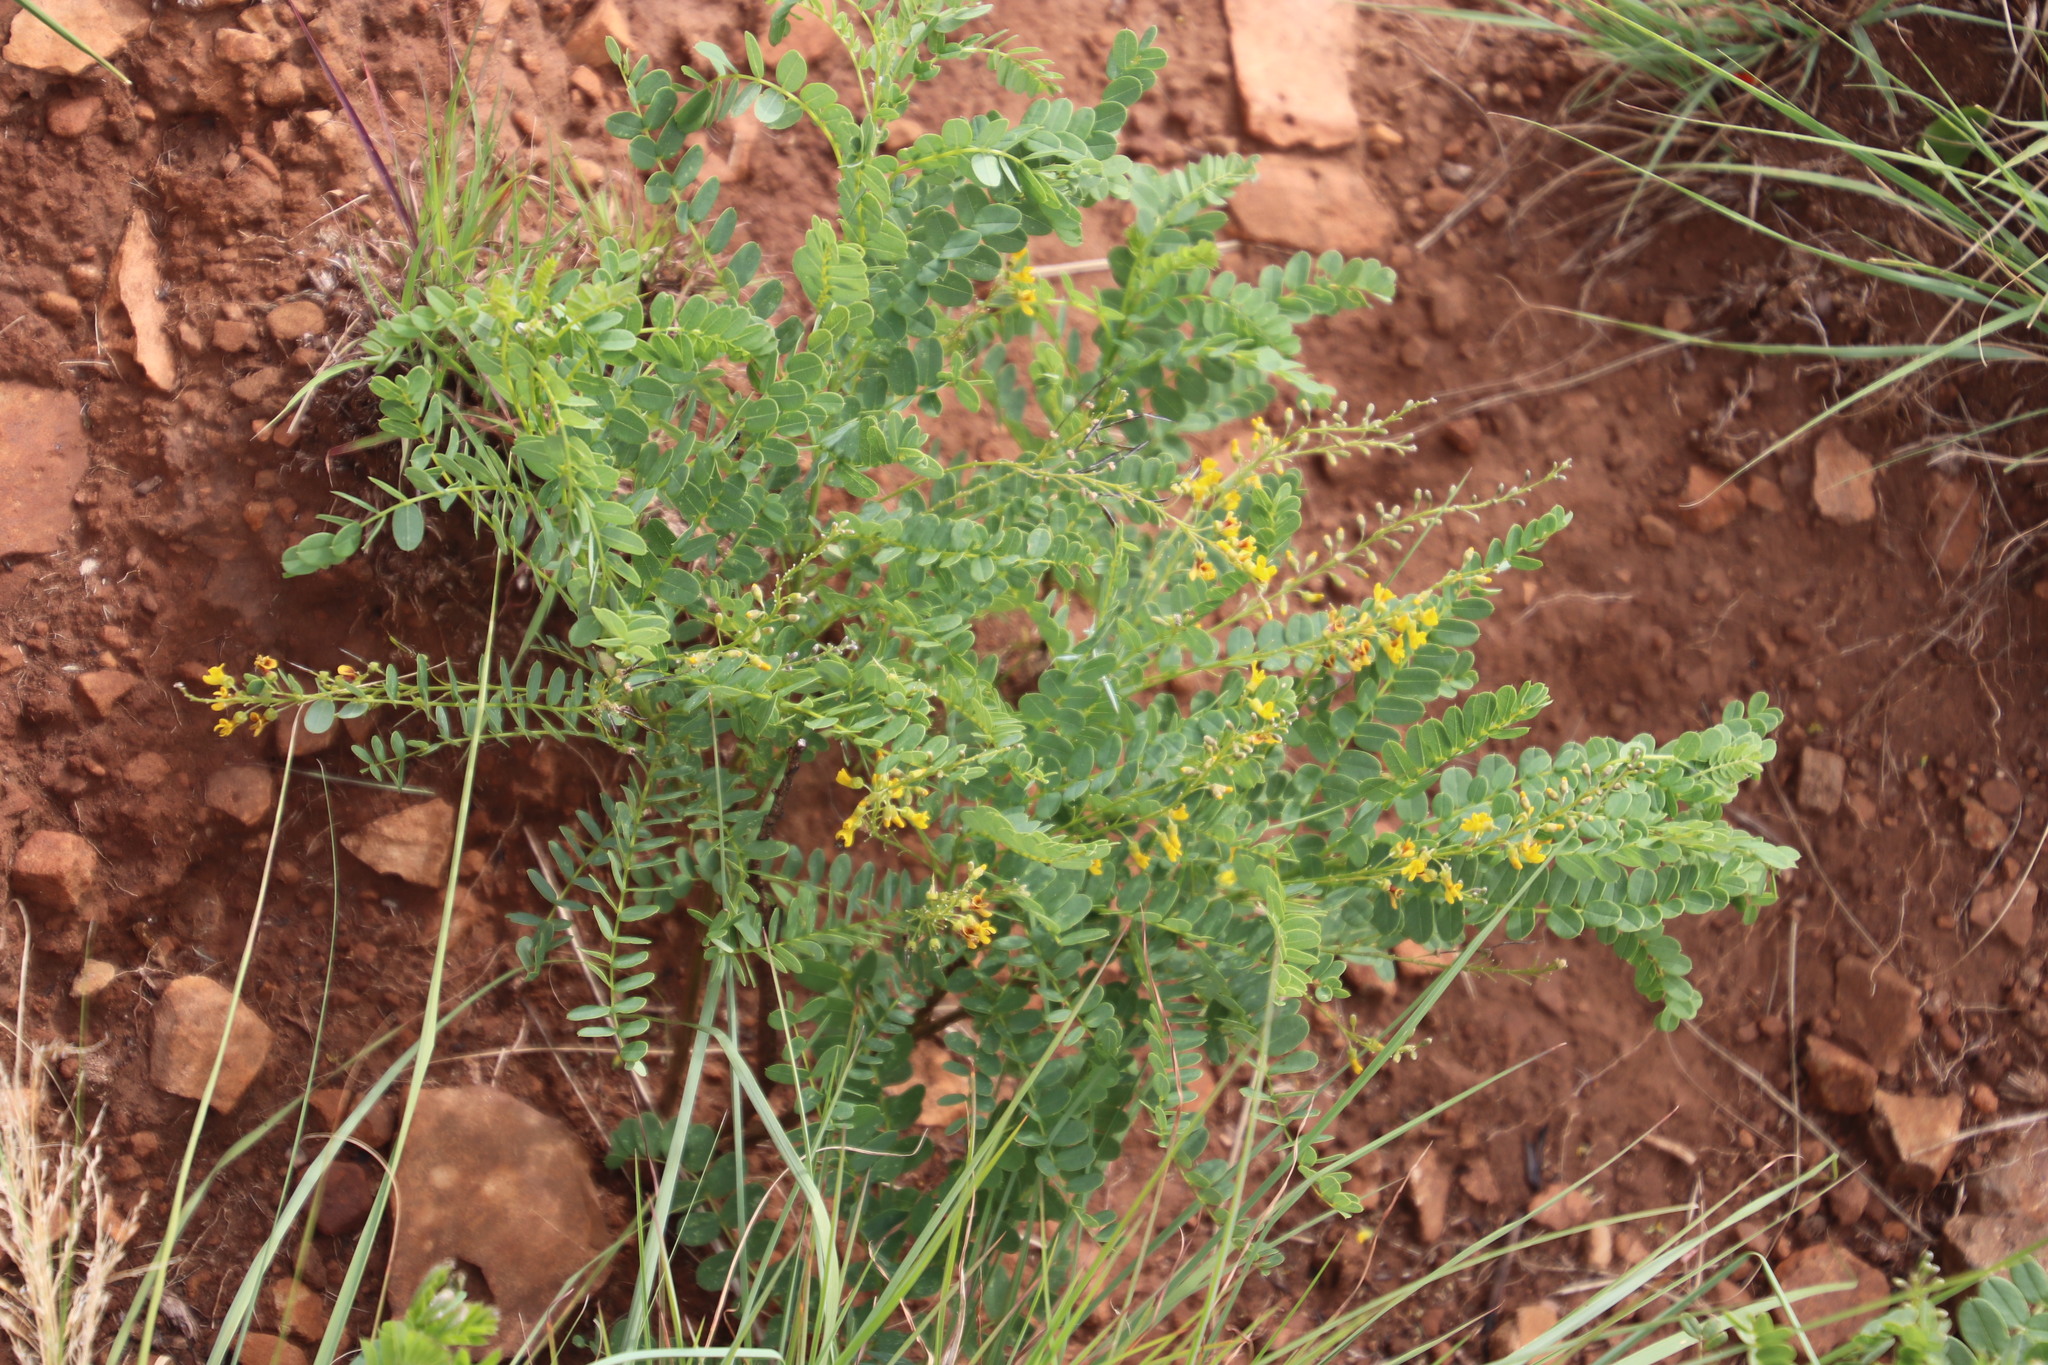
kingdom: Plantae
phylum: Tracheophyta
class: Magnoliopsida
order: Fabales
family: Fabaceae
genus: Calpurnia
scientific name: Calpurnia sericea
